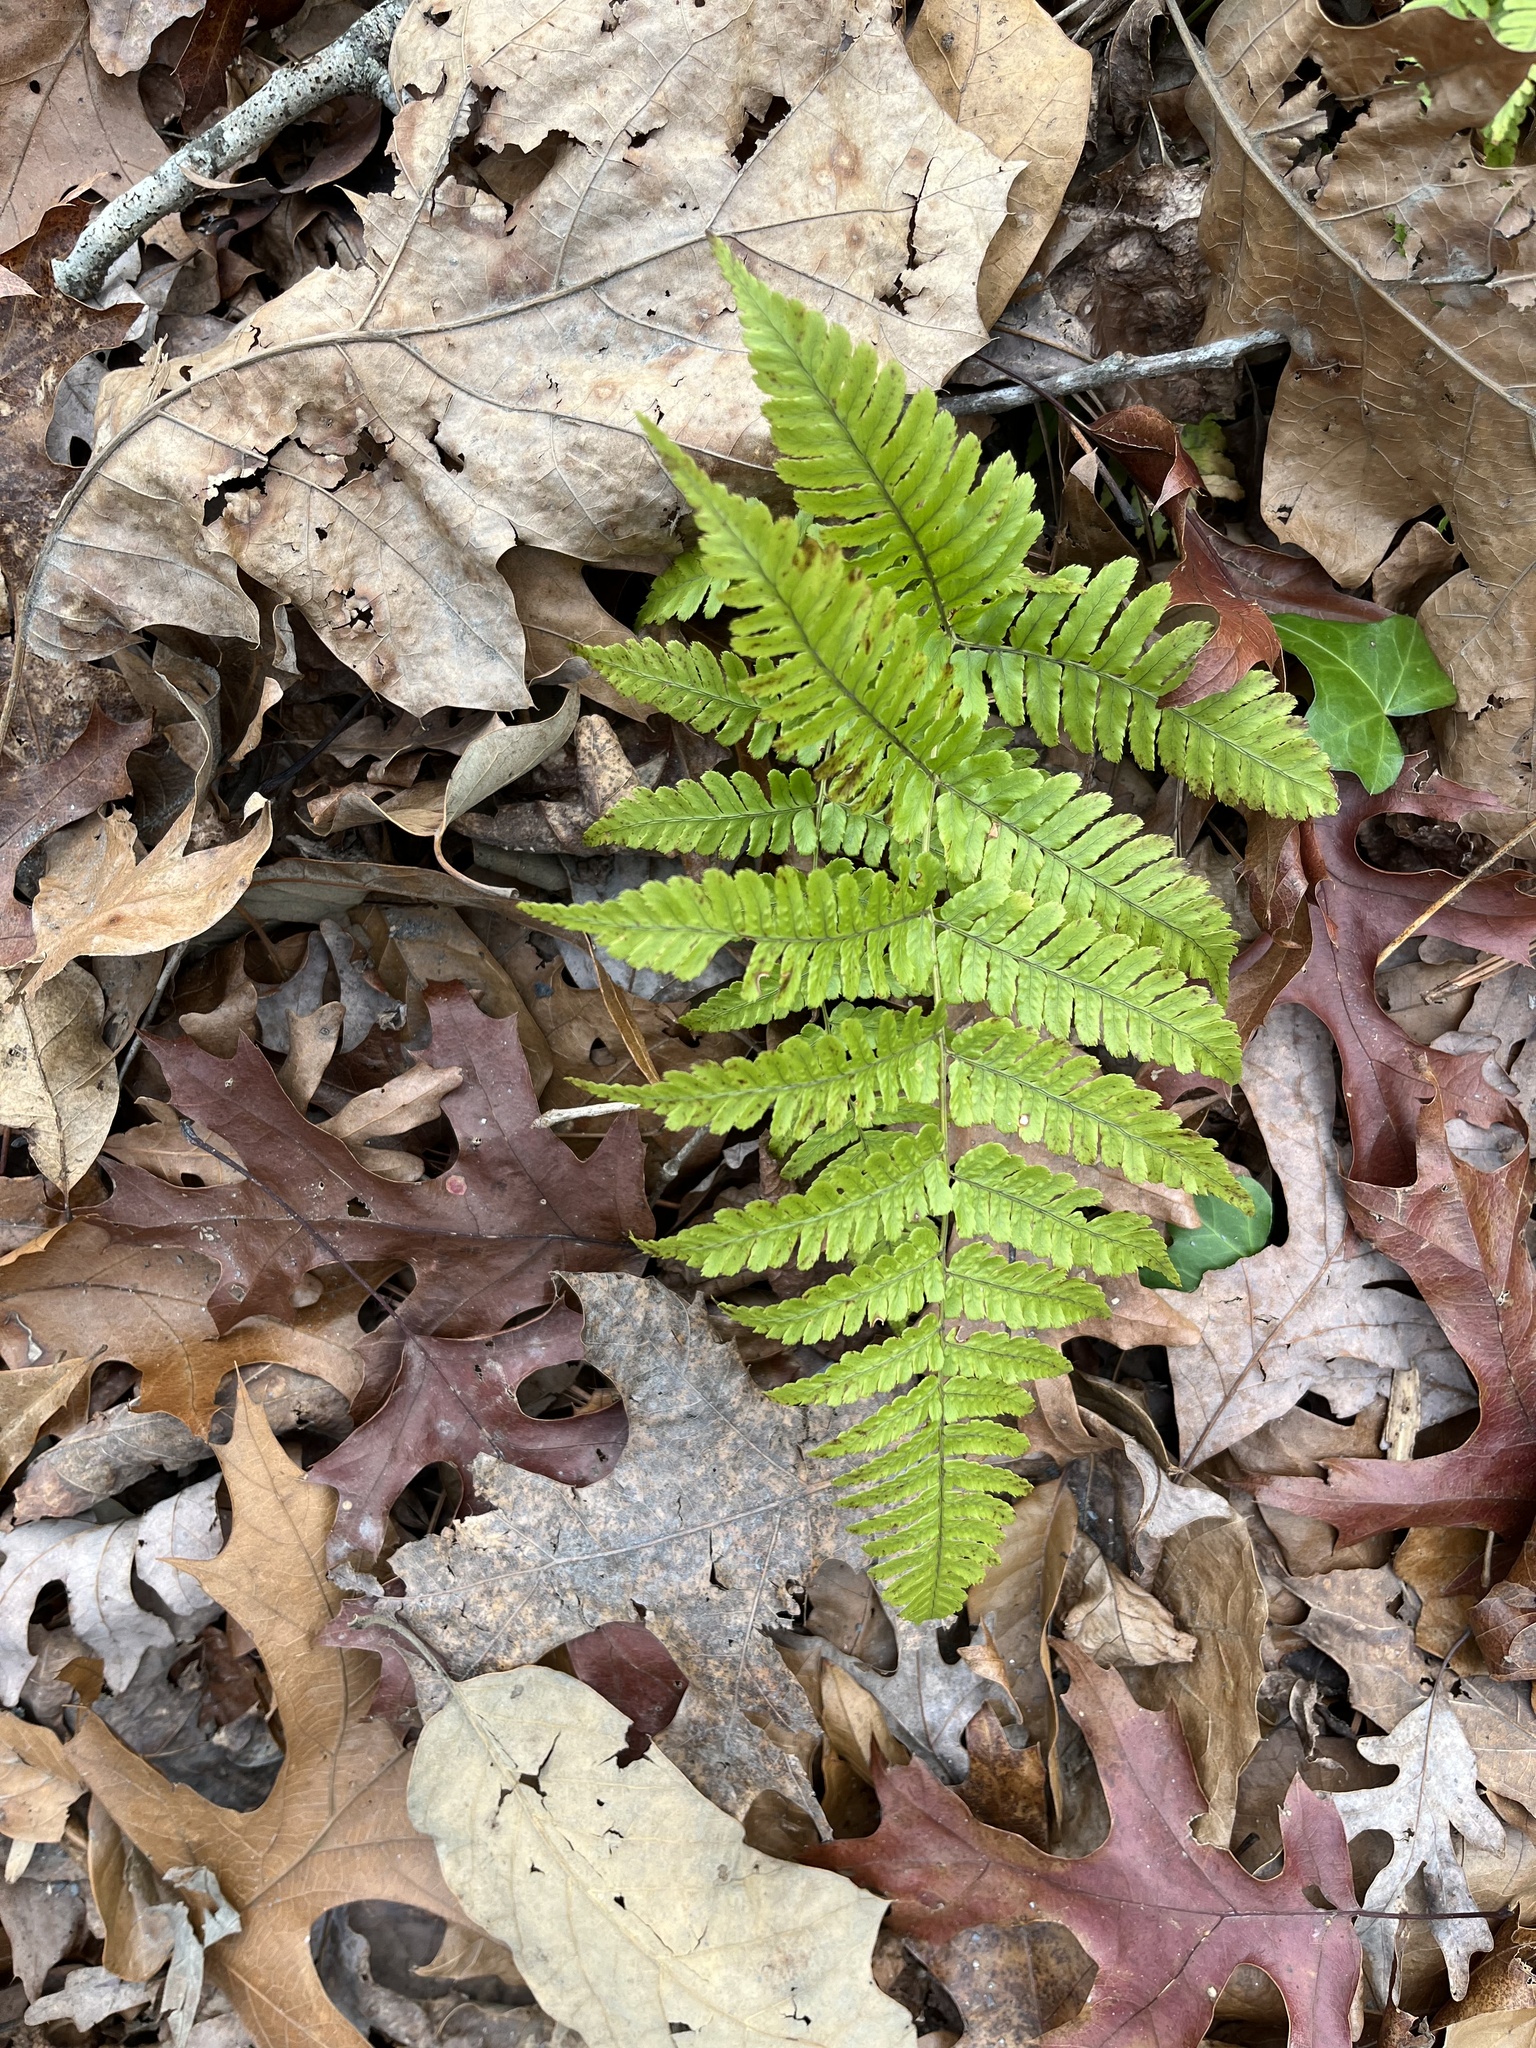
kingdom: Plantae
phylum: Tracheophyta
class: Polypodiopsida
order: Polypodiales
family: Dryopteridaceae
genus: Dryopteris
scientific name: Dryopteris erythrosora
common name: Autumn fern
